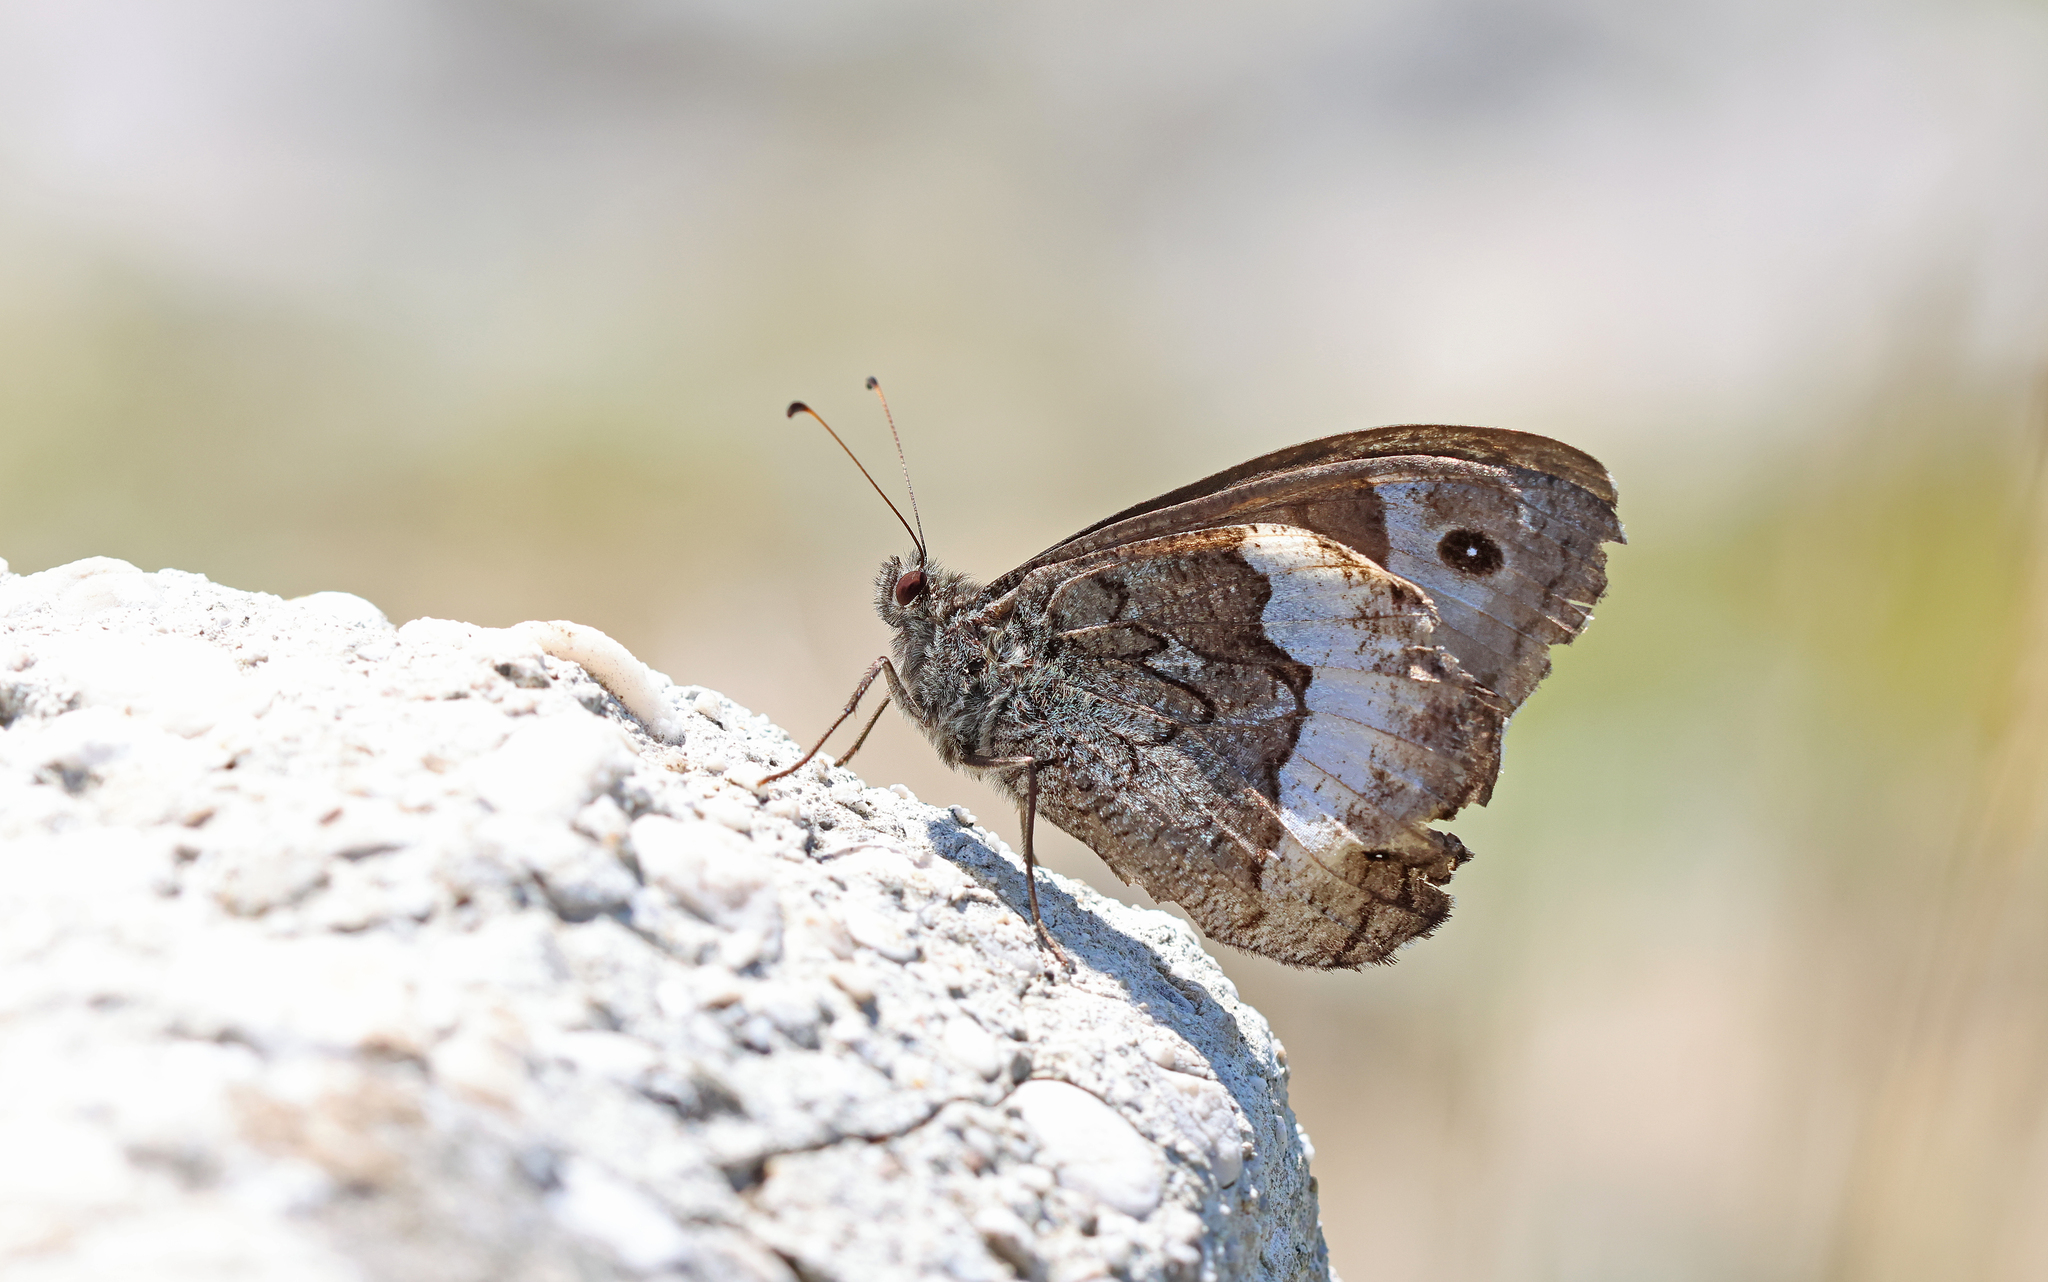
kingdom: Animalia
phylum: Arthropoda
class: Insecta
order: Lepidoptera
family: Nymphalidae
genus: Hipparchia
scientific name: Hipparchia fagi
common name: Woodland grayling
